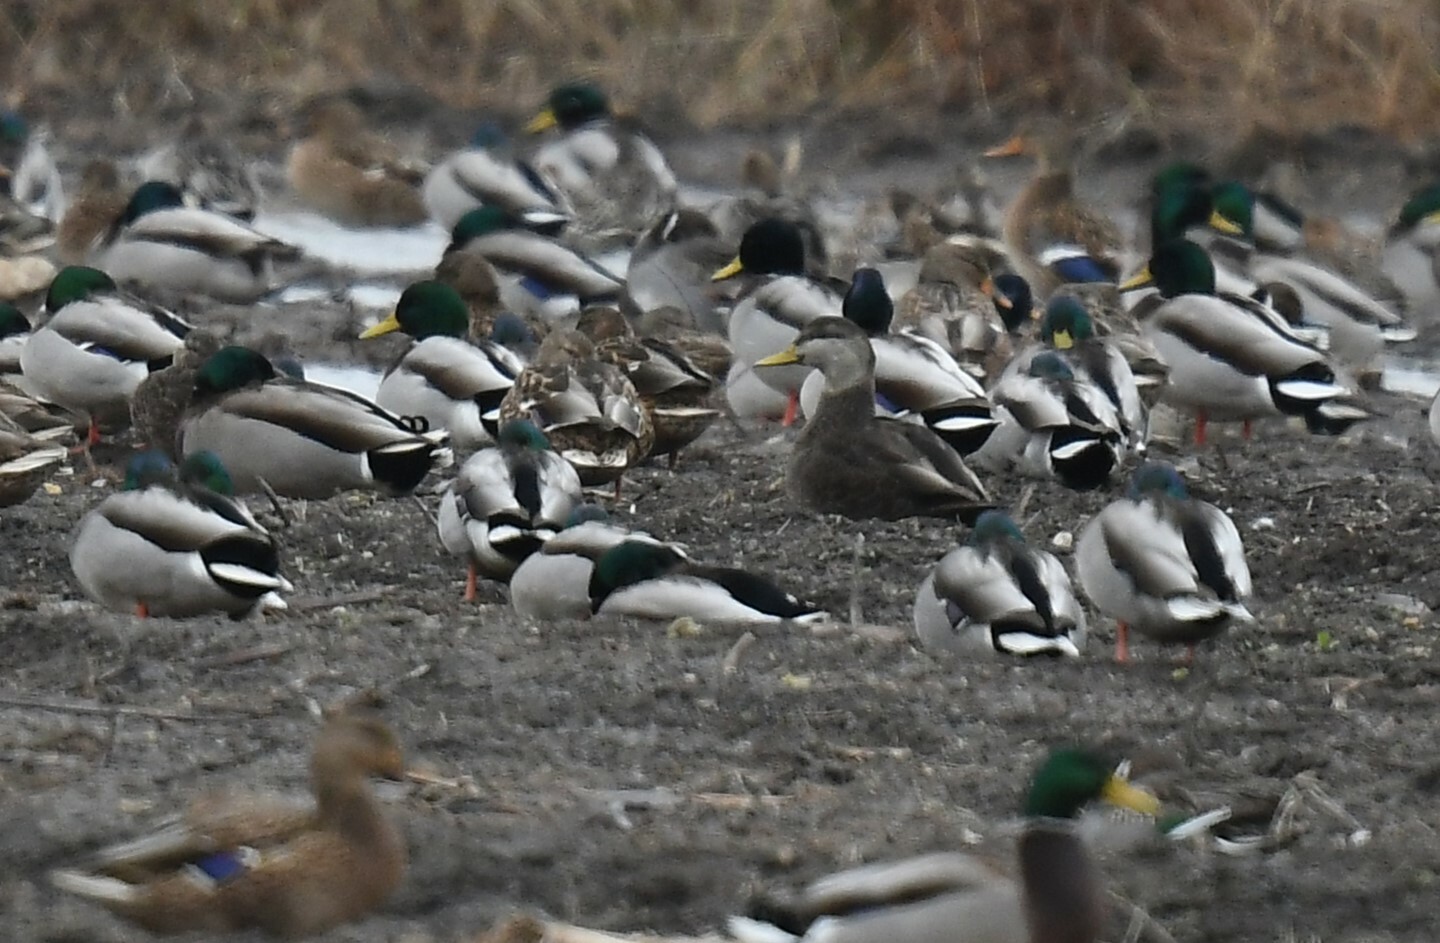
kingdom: Animalia
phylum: Chordata
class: Aves
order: Anseriformes
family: Anatidae
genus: Anas
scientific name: Anas rubripes
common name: American black duck
